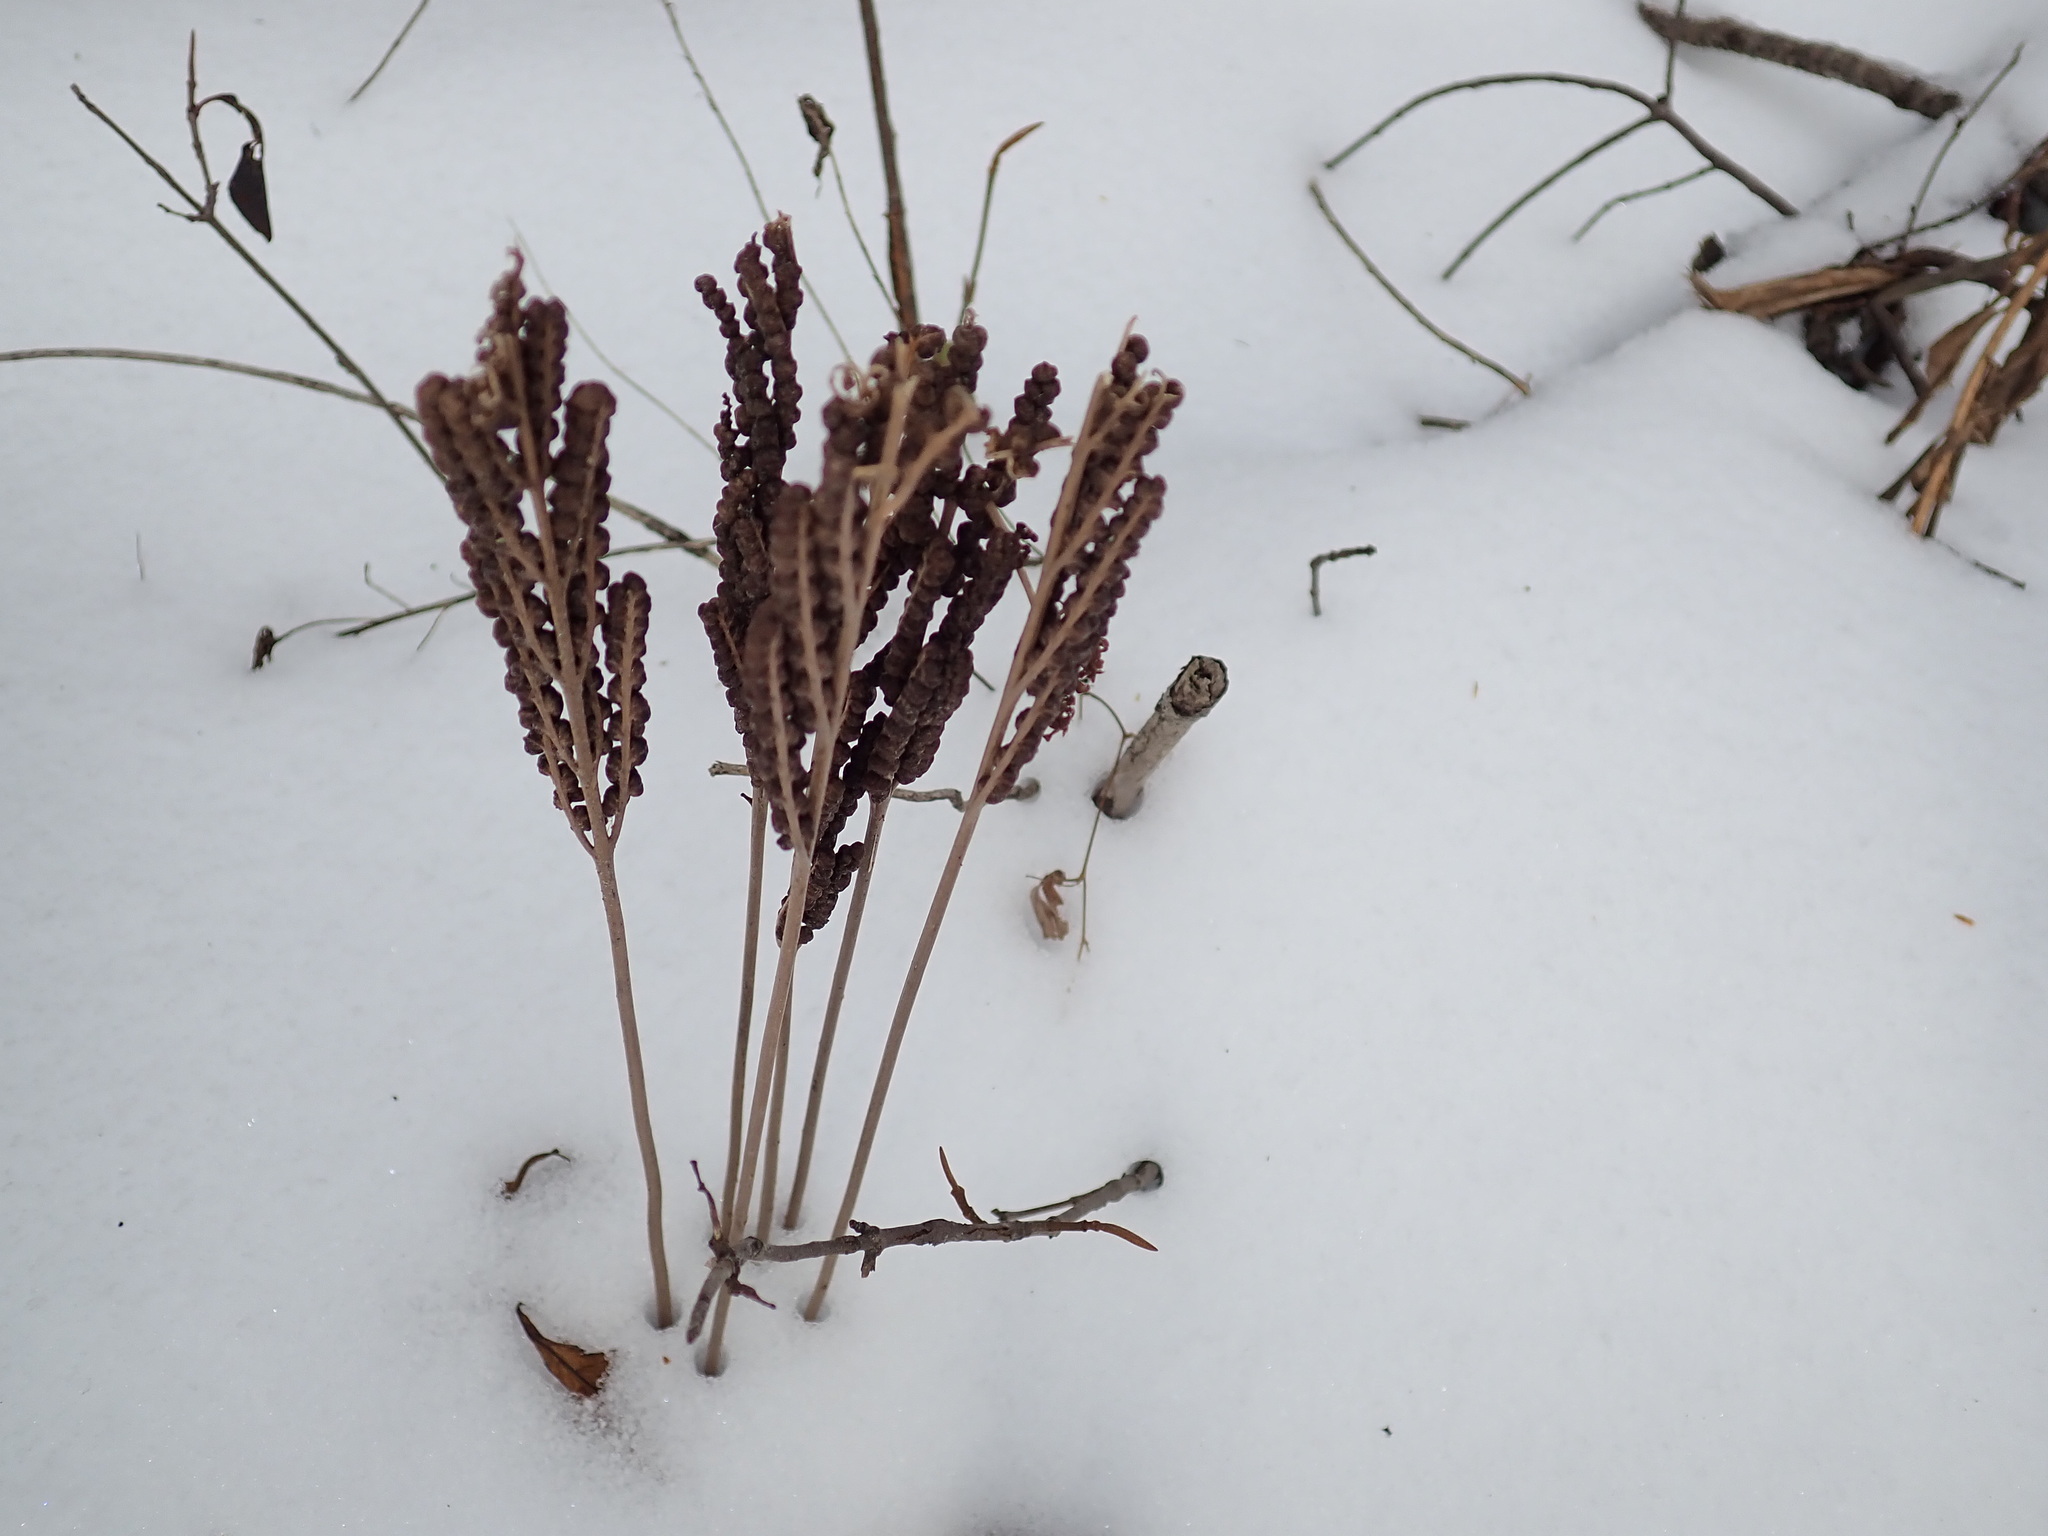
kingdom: Plantae
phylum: Tracheophyta
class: Polypodiopsida
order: Polypodiales
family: Onocleaceae
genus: Onoclea
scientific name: Onoclea sensibilis
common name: Sensitive fern
